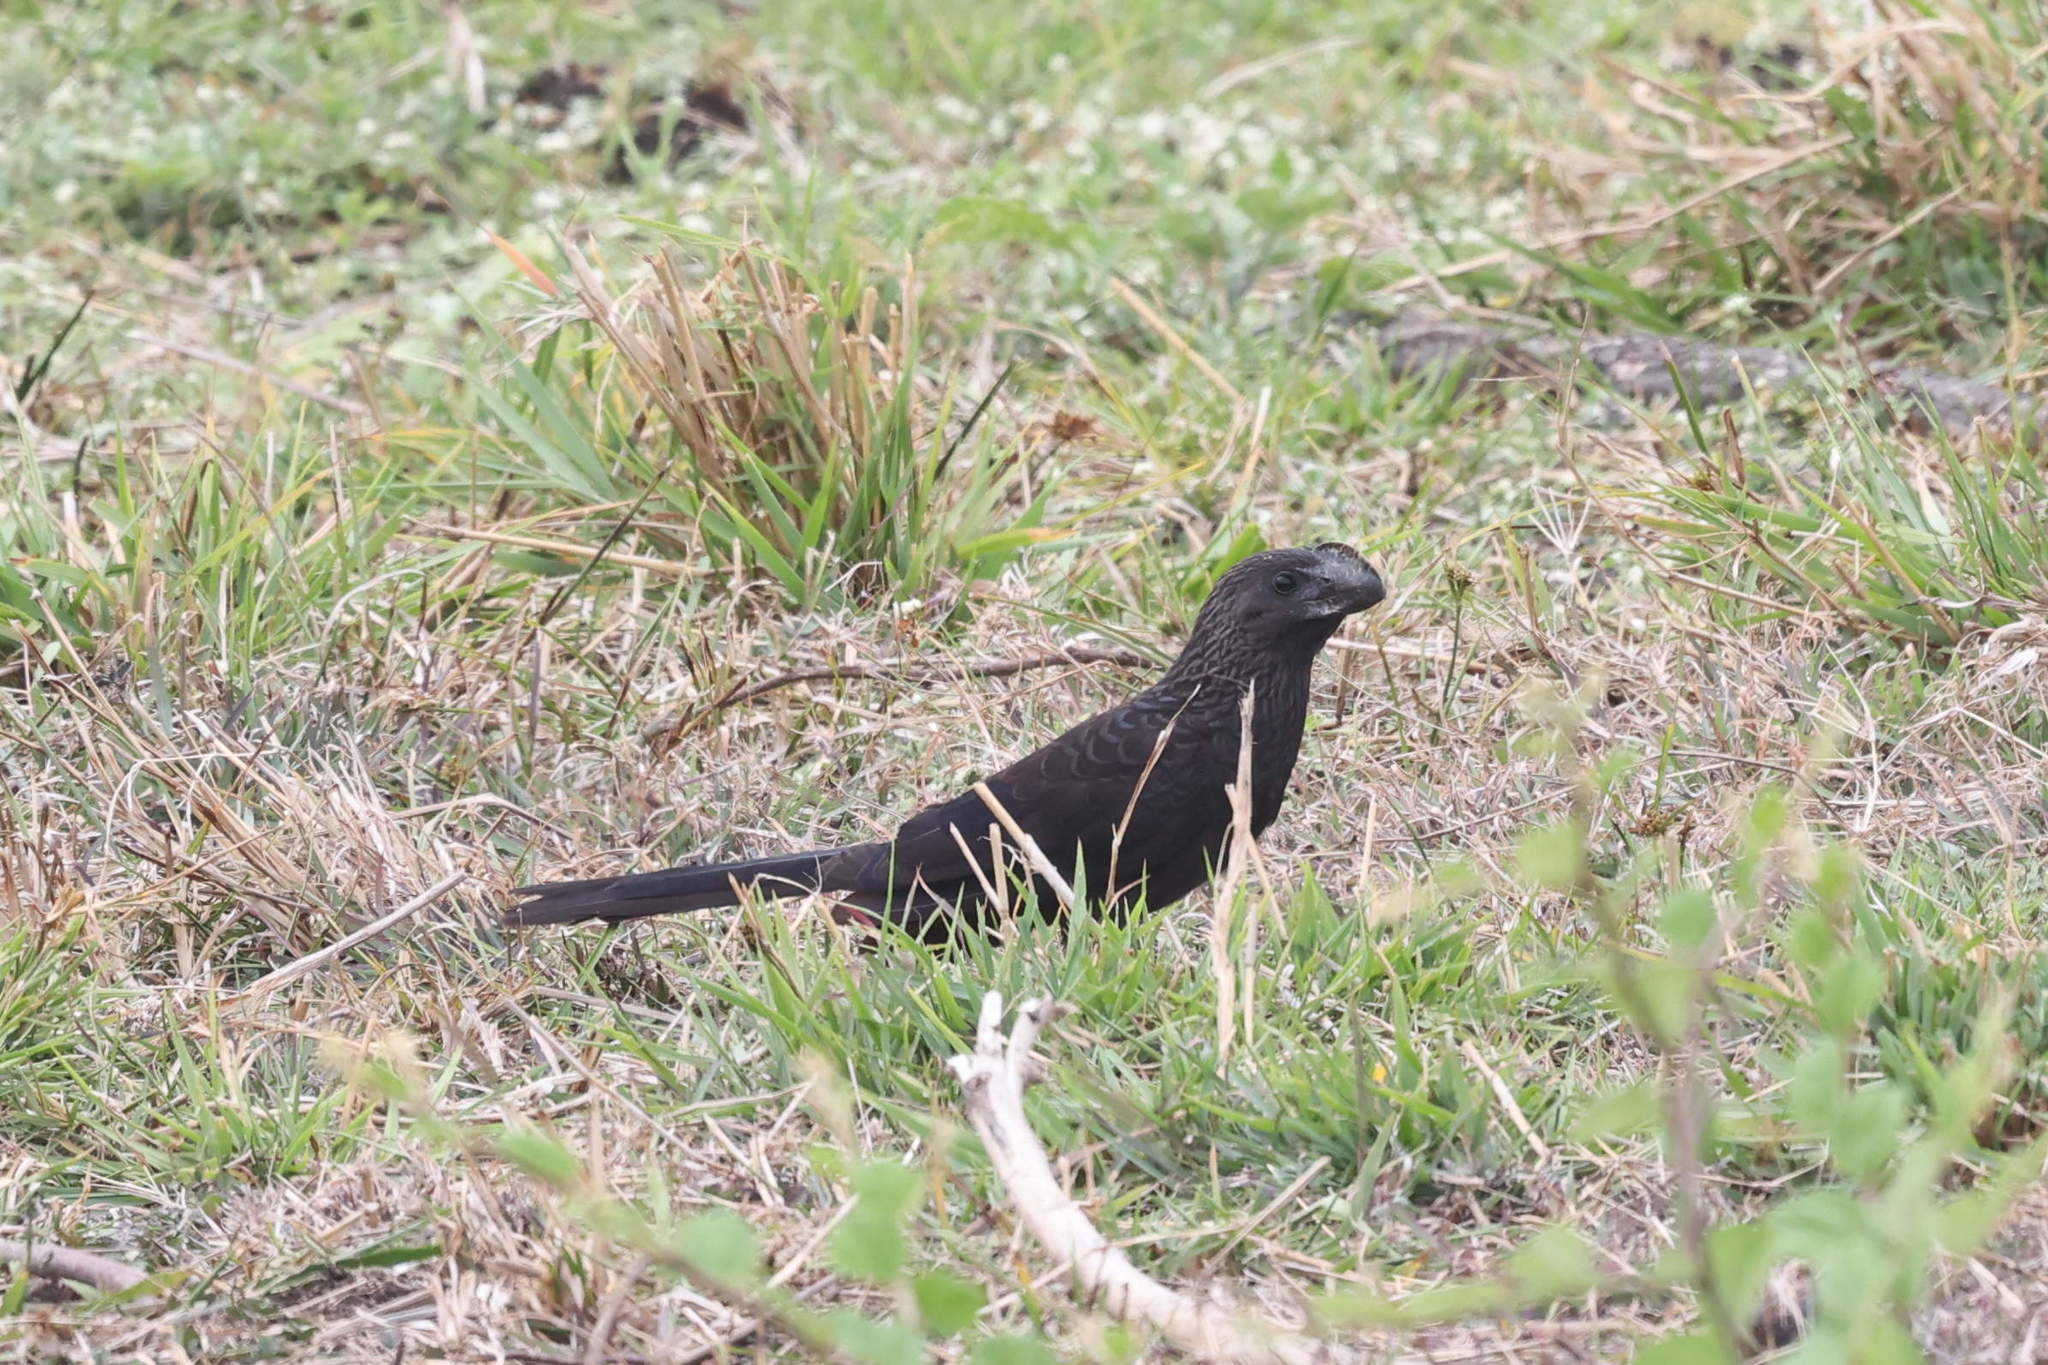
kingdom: Animalia
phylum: Chordata
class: Aves
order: Cuculiformes
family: Cuculidae
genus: Crotophaga
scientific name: Crotophaga ani
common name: Smooth-billed ani
